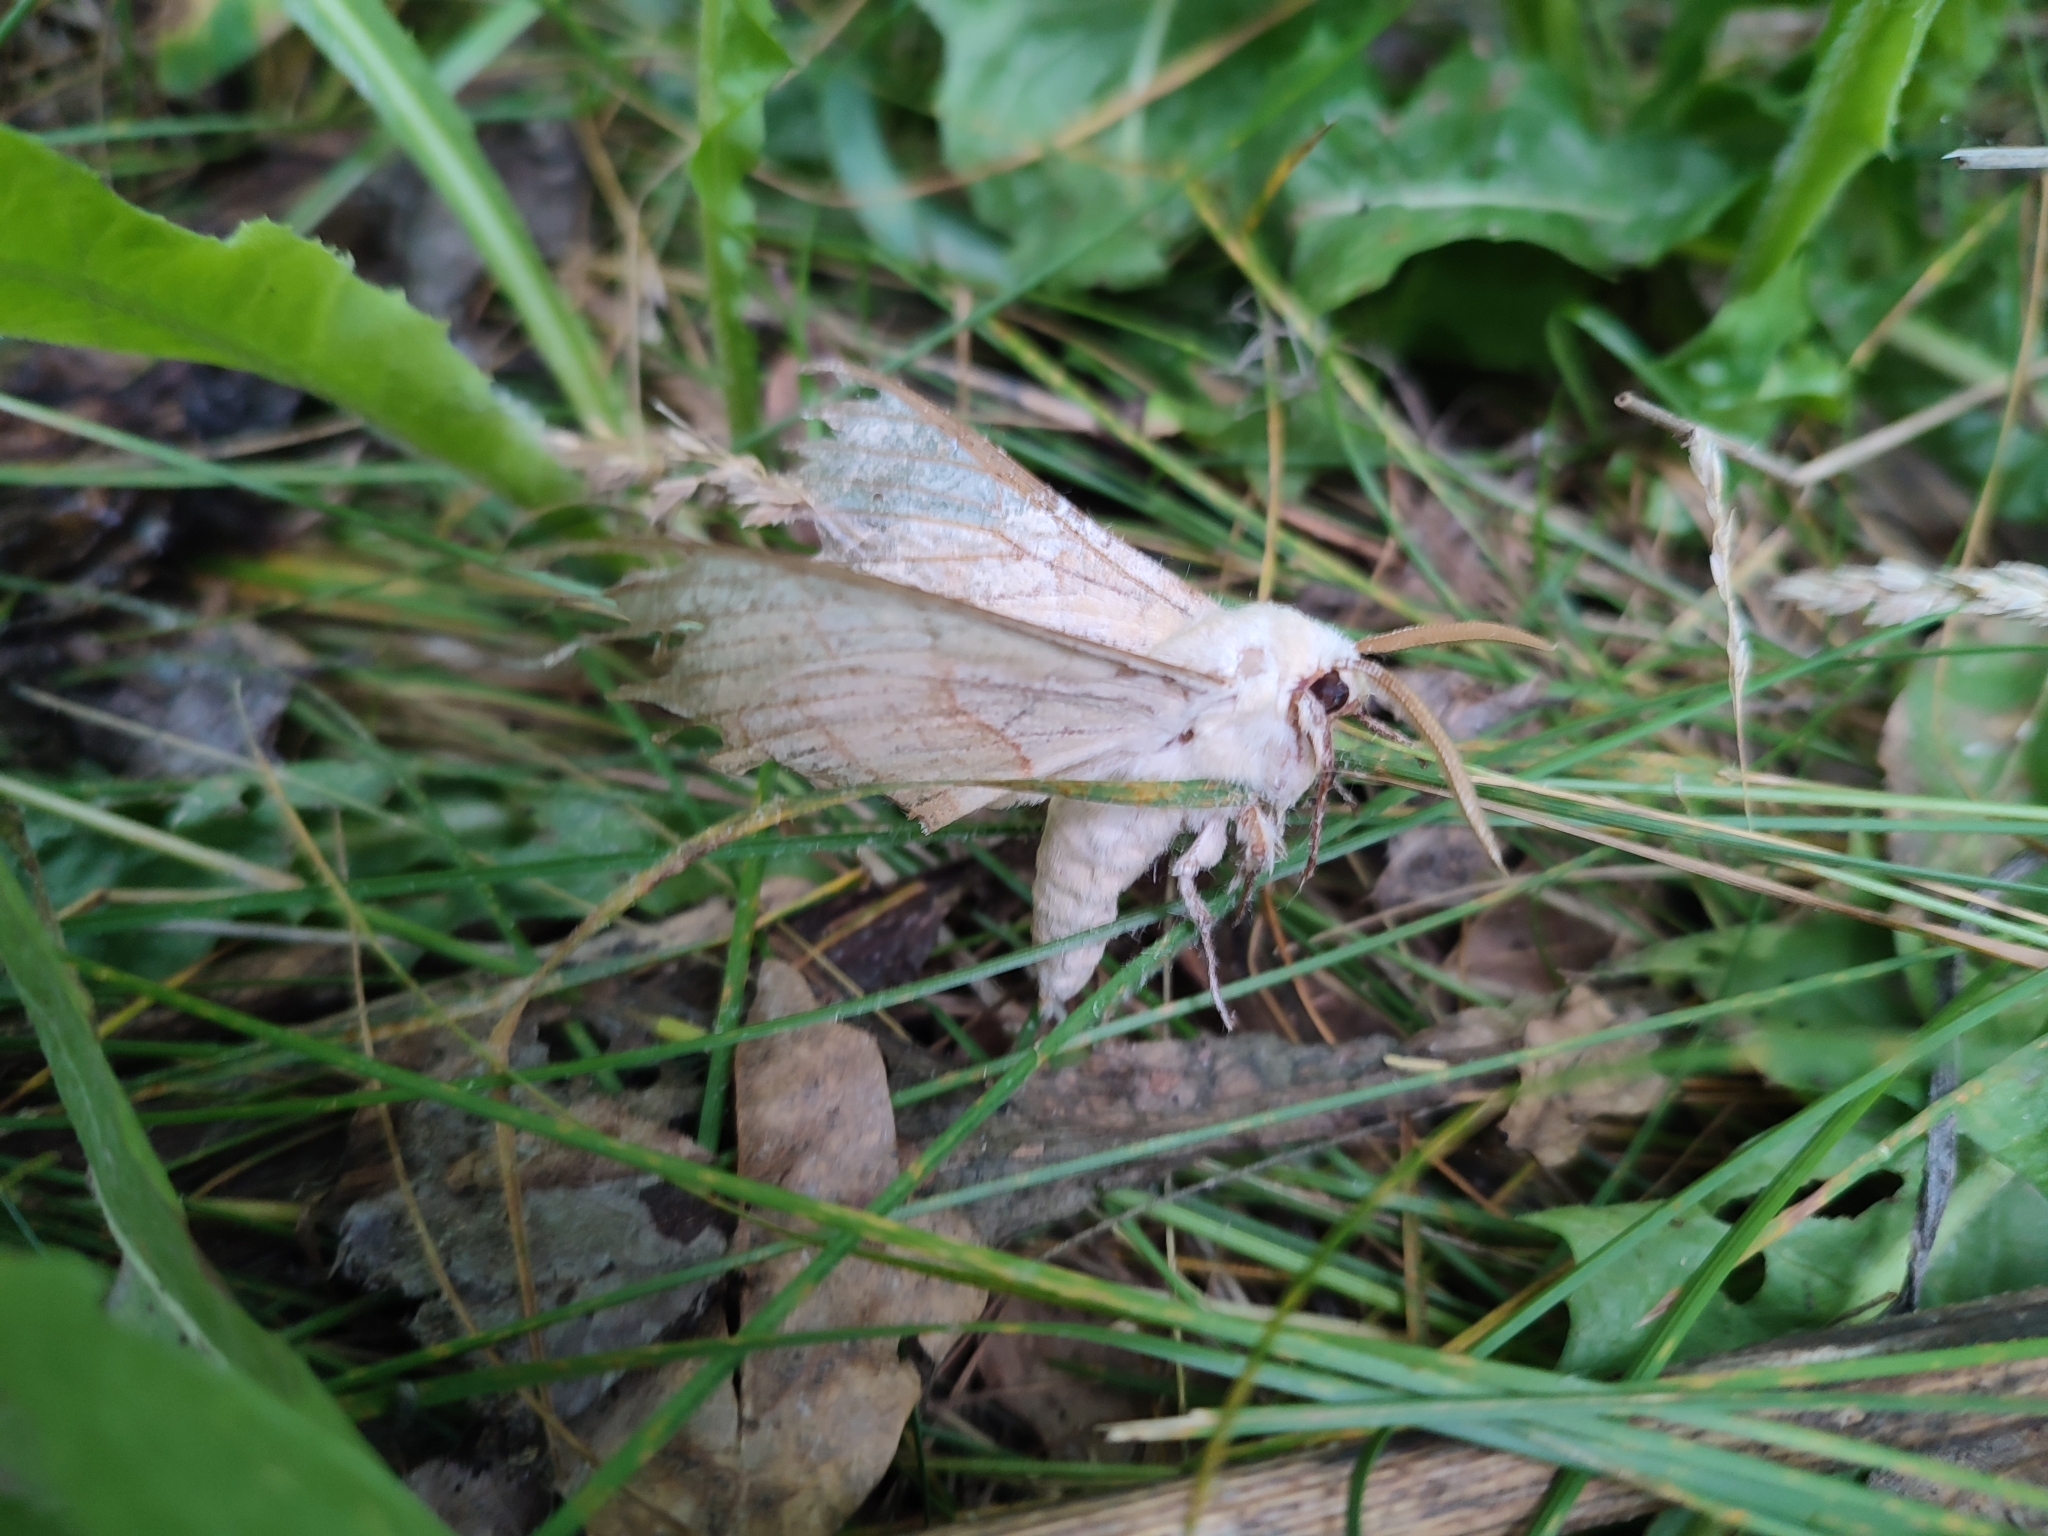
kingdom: Animalia
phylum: Arthropoda
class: Insecta
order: Lepidoptera
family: Sphingidae
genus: Marumba
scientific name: Marumba quercus
